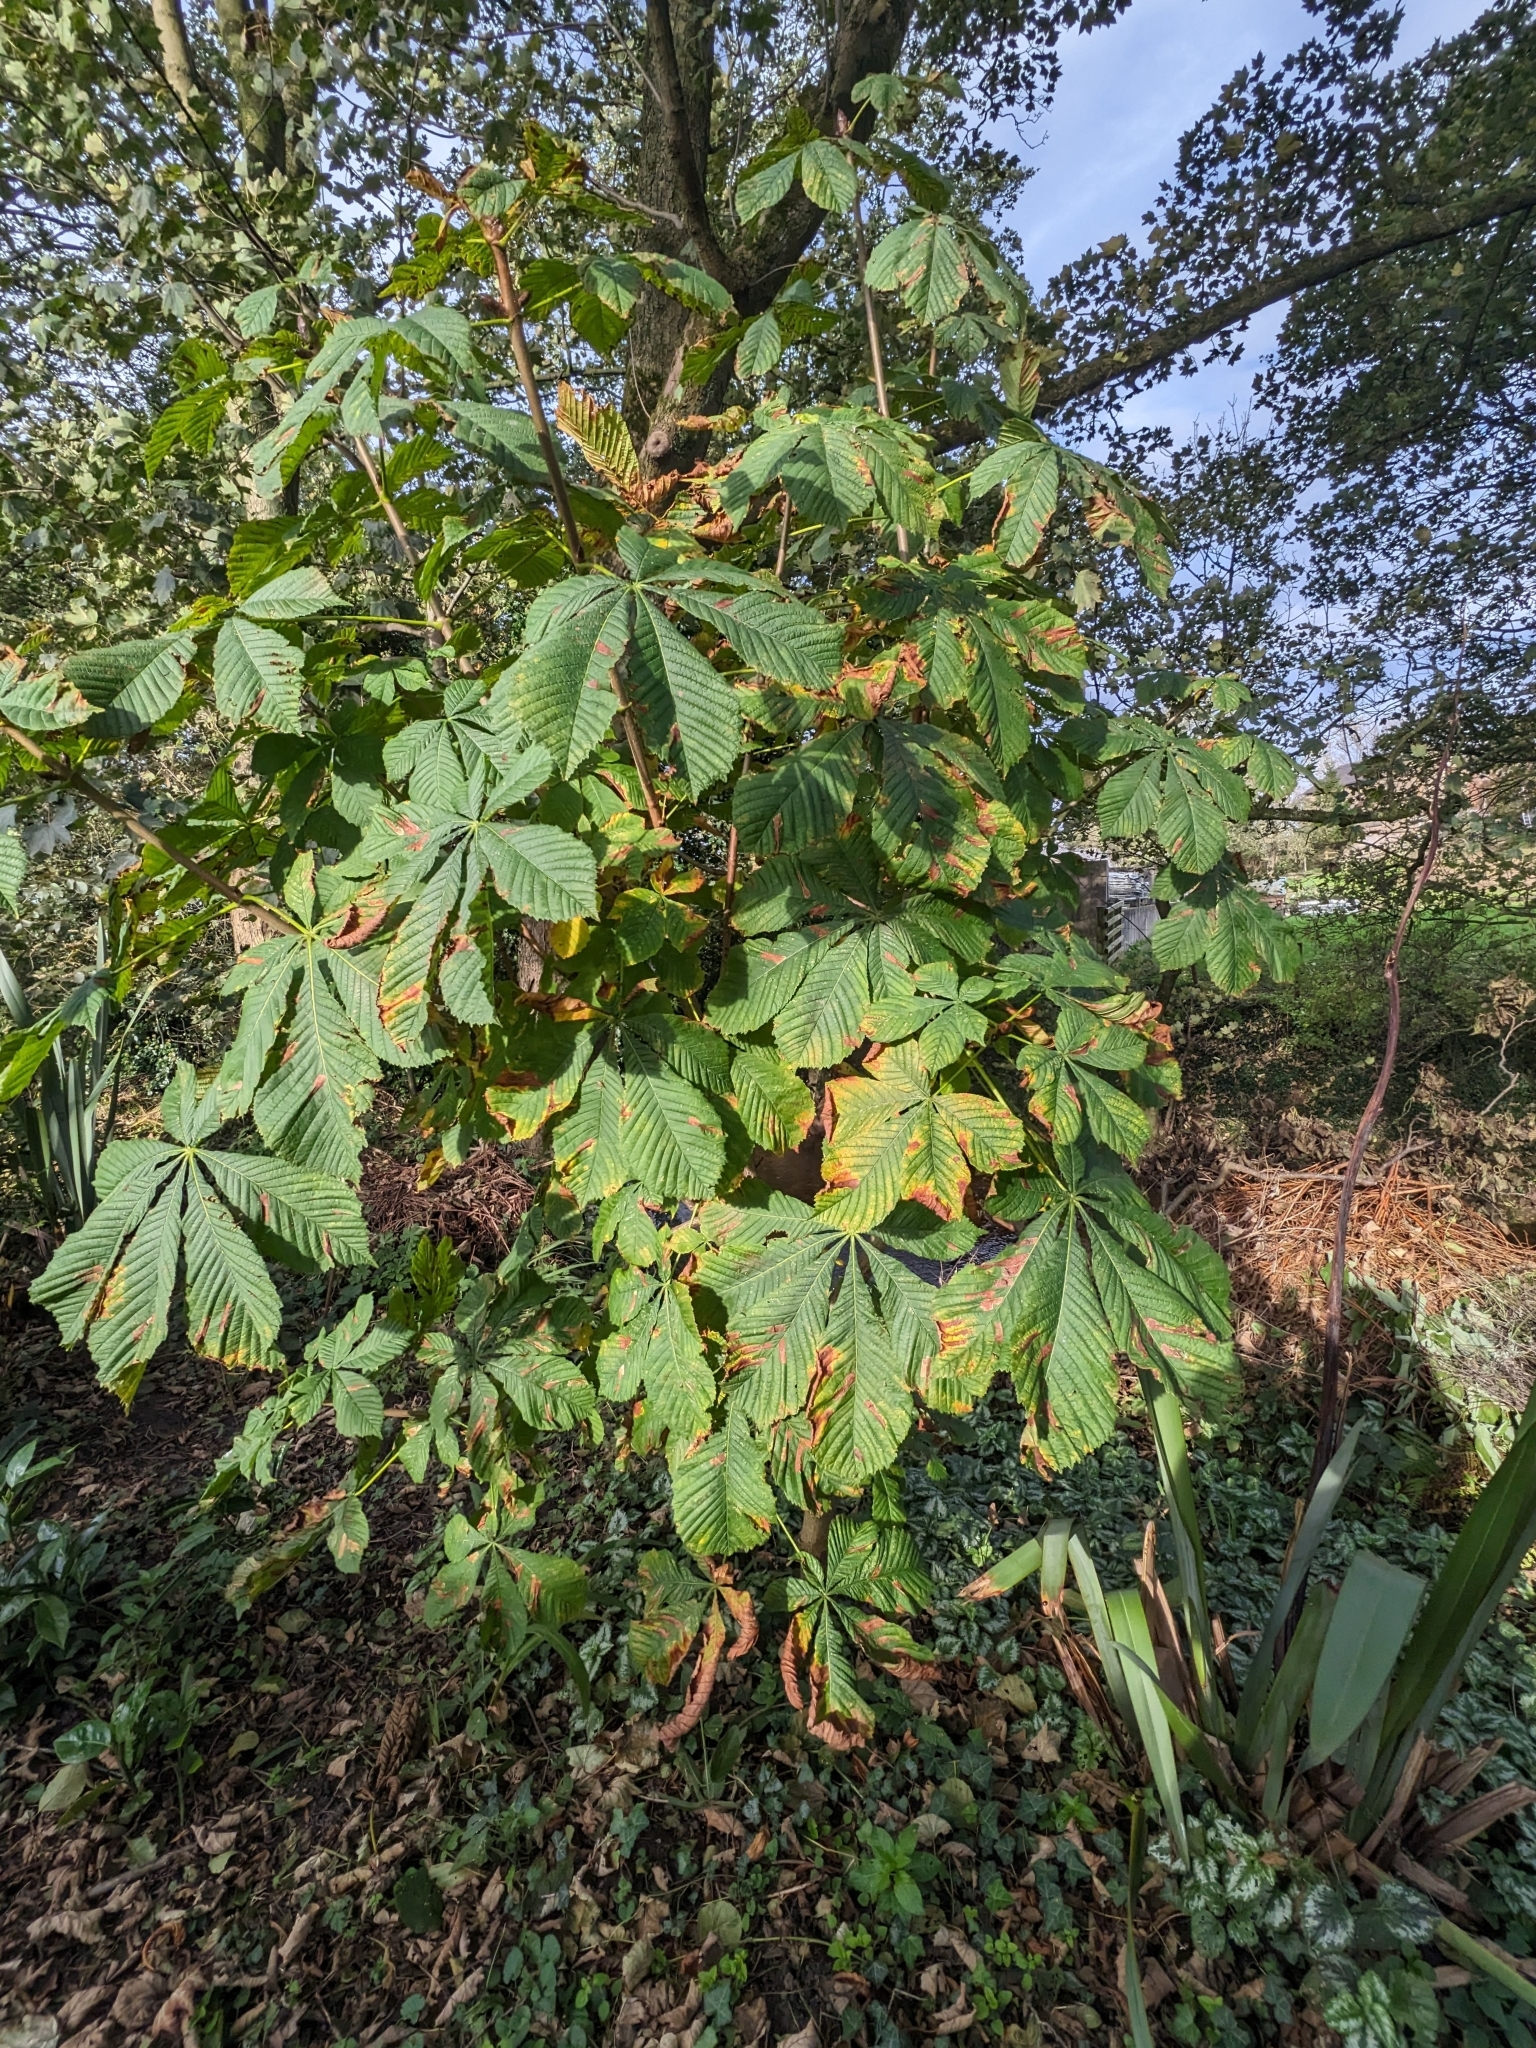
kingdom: Plantae
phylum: Tracheophyta
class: Magnoliopsida
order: Sapindales
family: Sapindaceae
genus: Aesculus
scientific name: Aesculus hippocastanum
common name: Horse-chestnut
